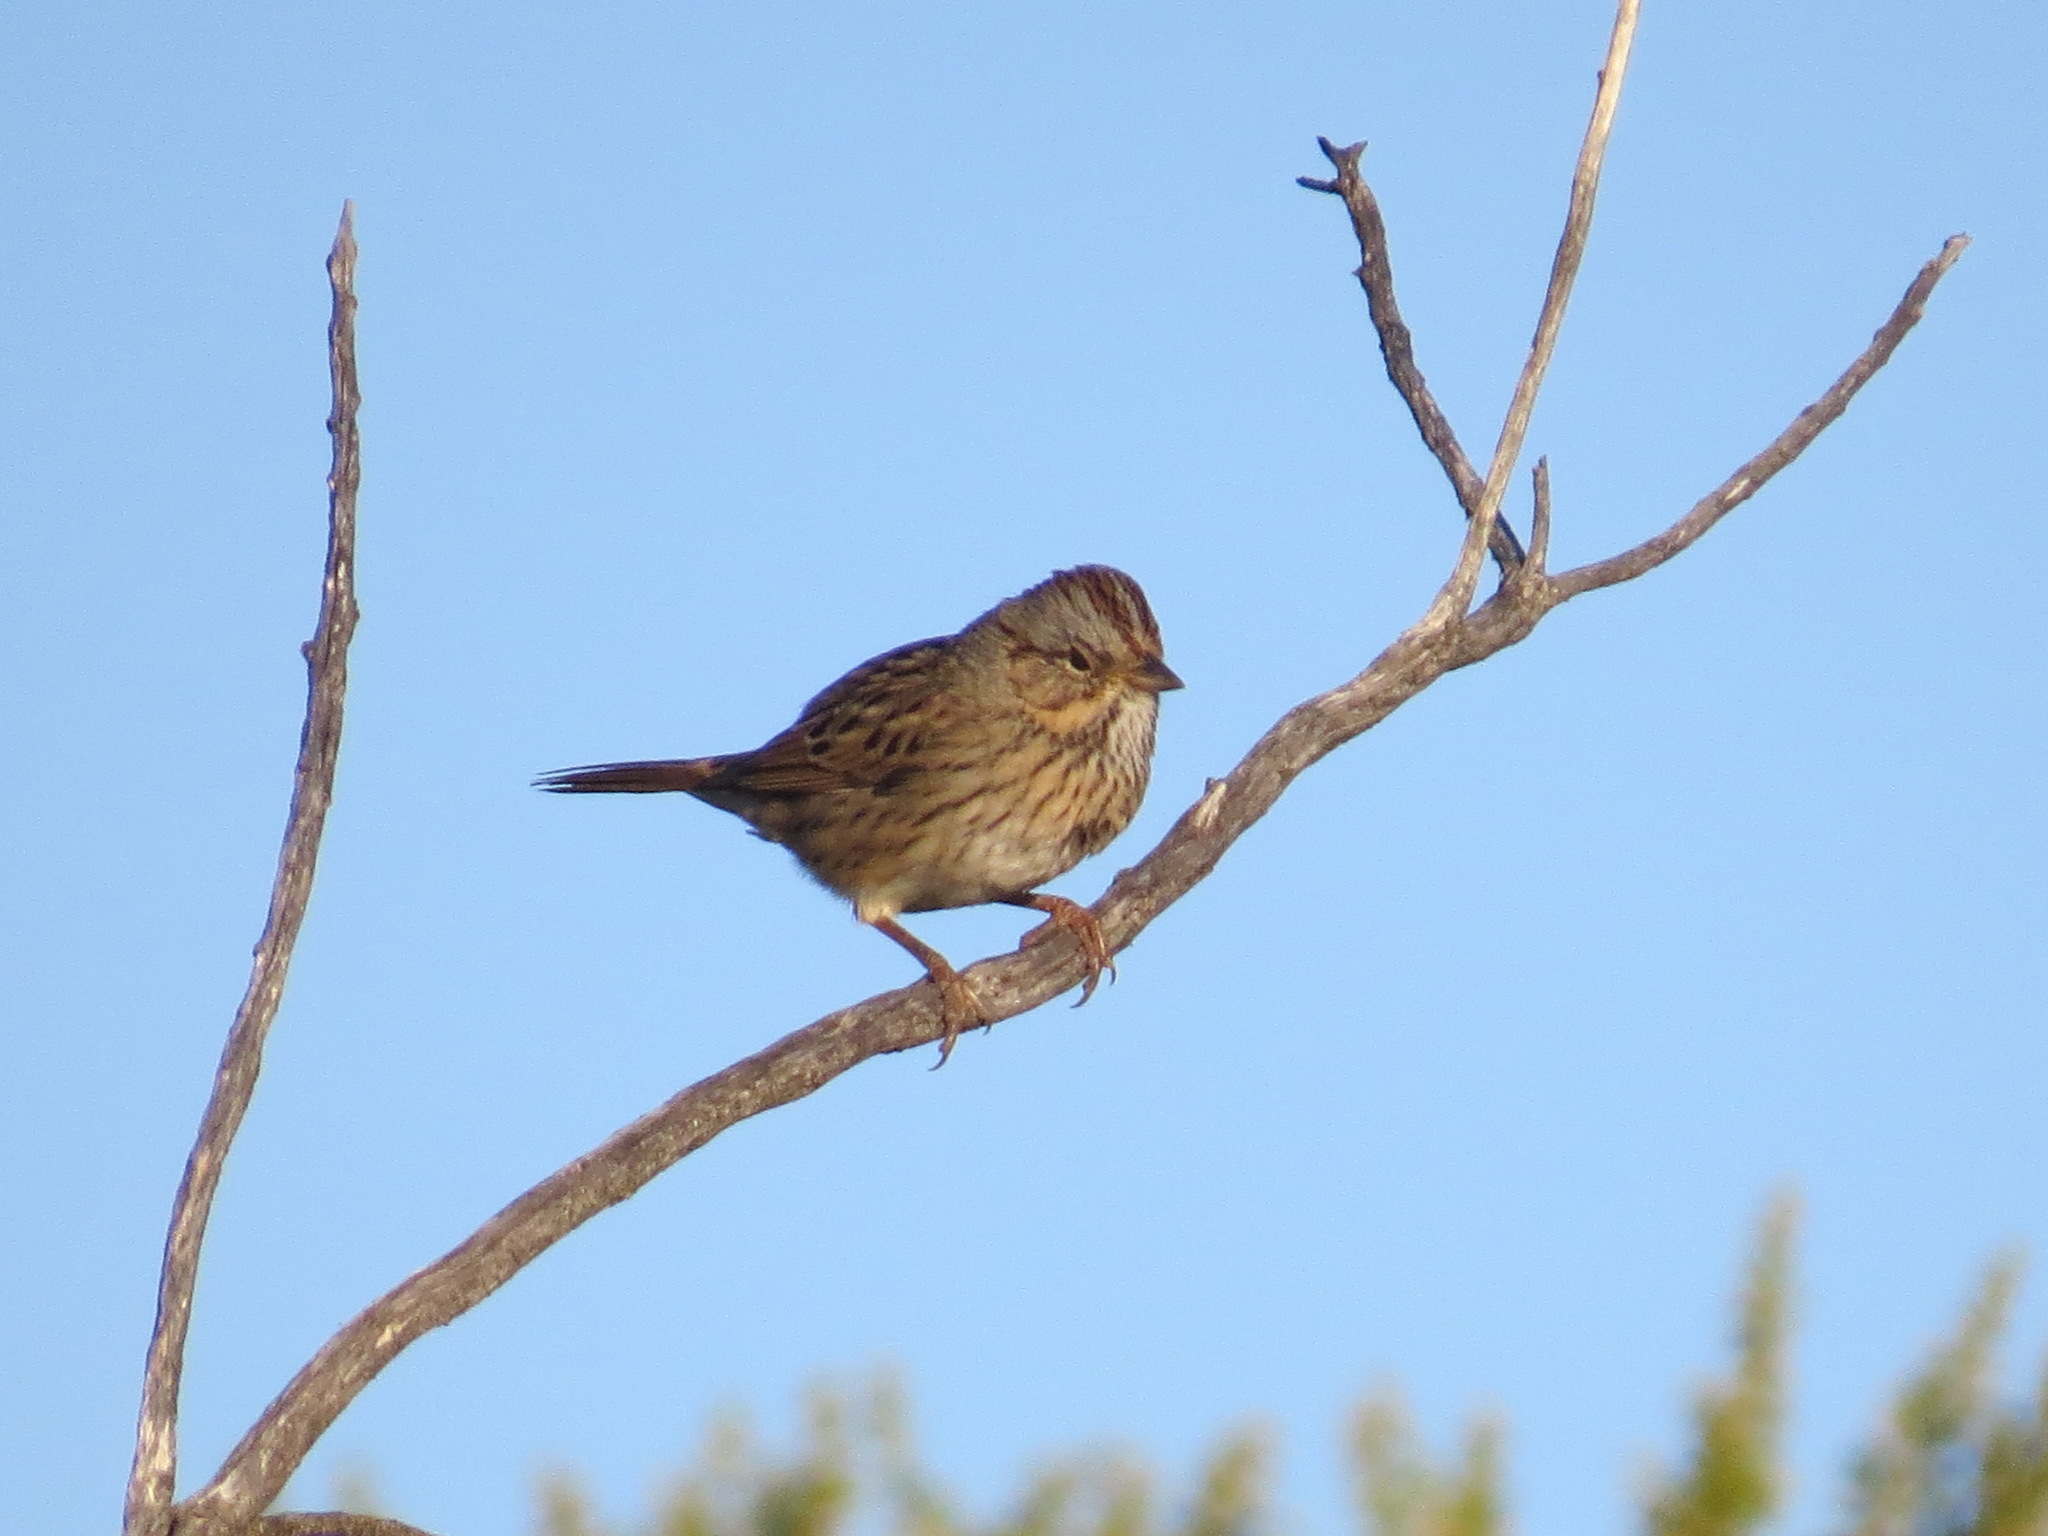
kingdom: Animalia
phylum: Chordata
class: Aves
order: Passeriformes
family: Passerellidae
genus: Melospiza
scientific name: Melospiza lincolnii
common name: Lincoln's sparrow
